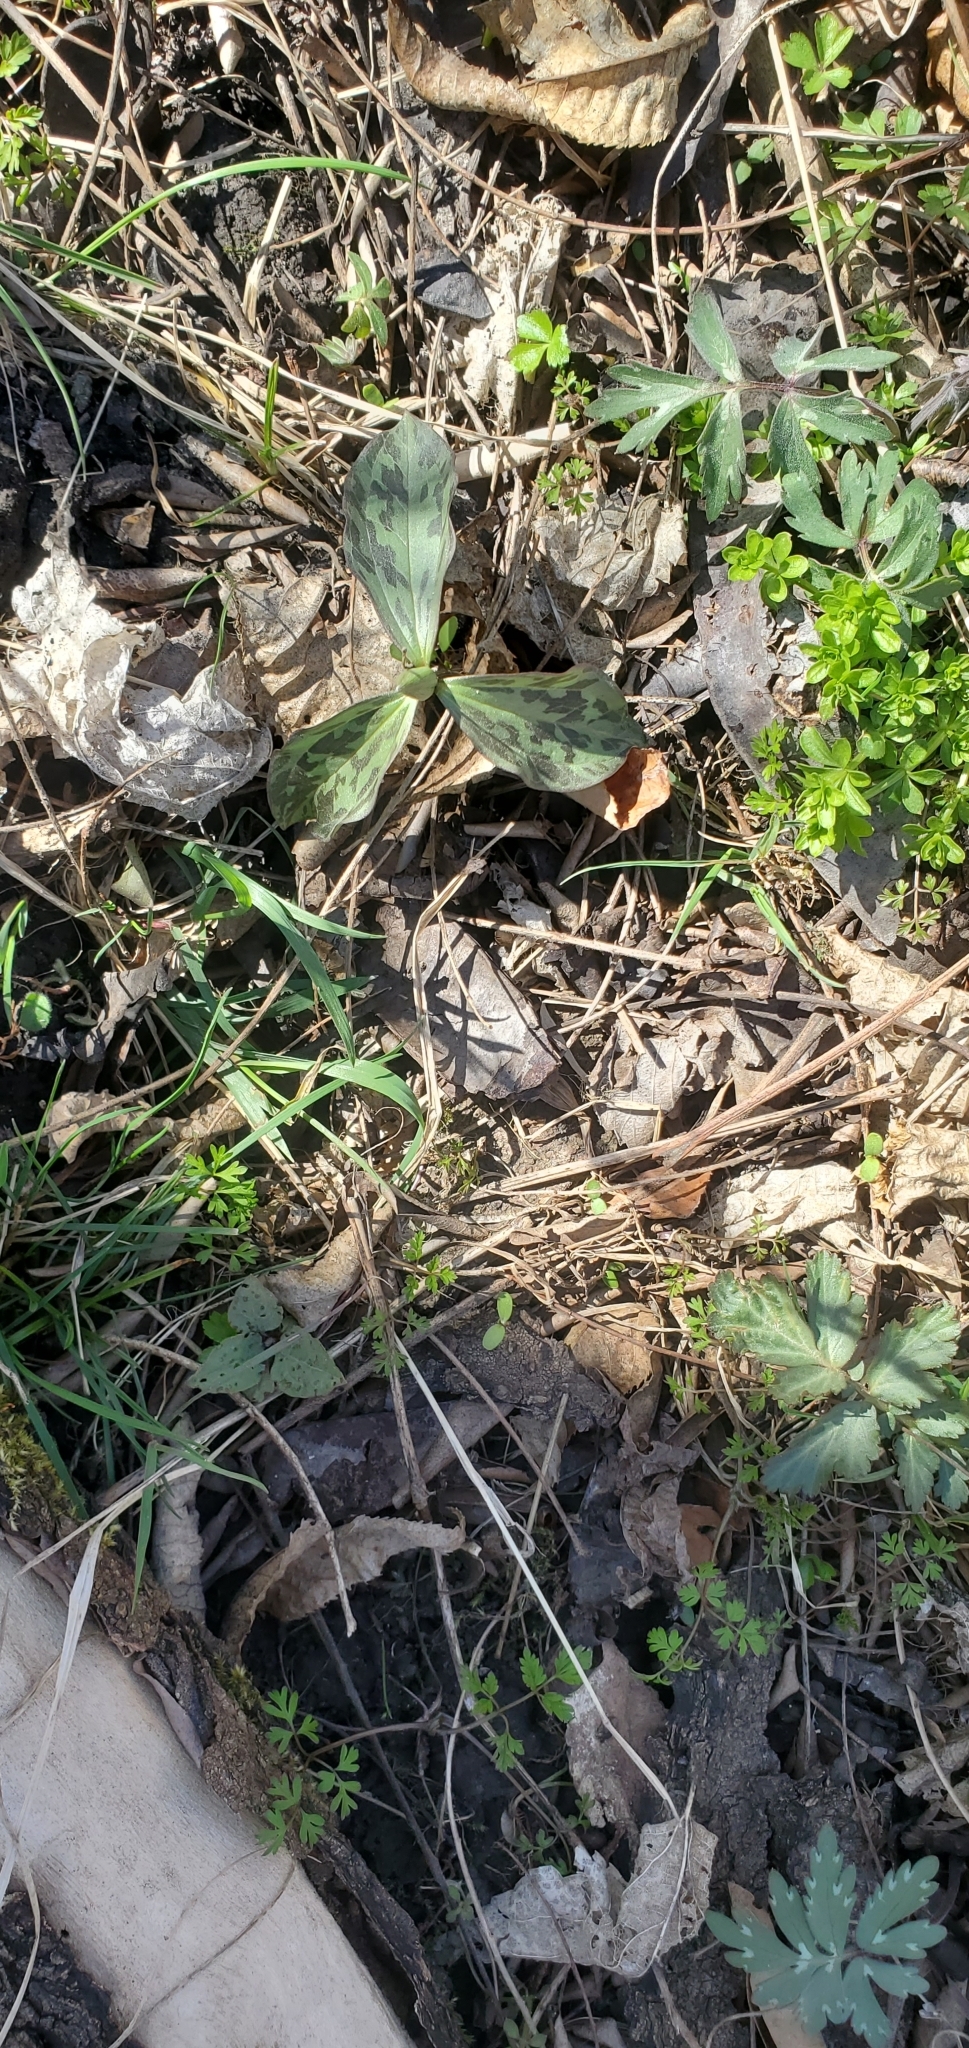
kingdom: Plantae
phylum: Tracheophyta
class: Liliopsida
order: Liliales
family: Melanthiaceae
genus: Trillium
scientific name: Trillium recurvatum
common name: Bloody butcher
